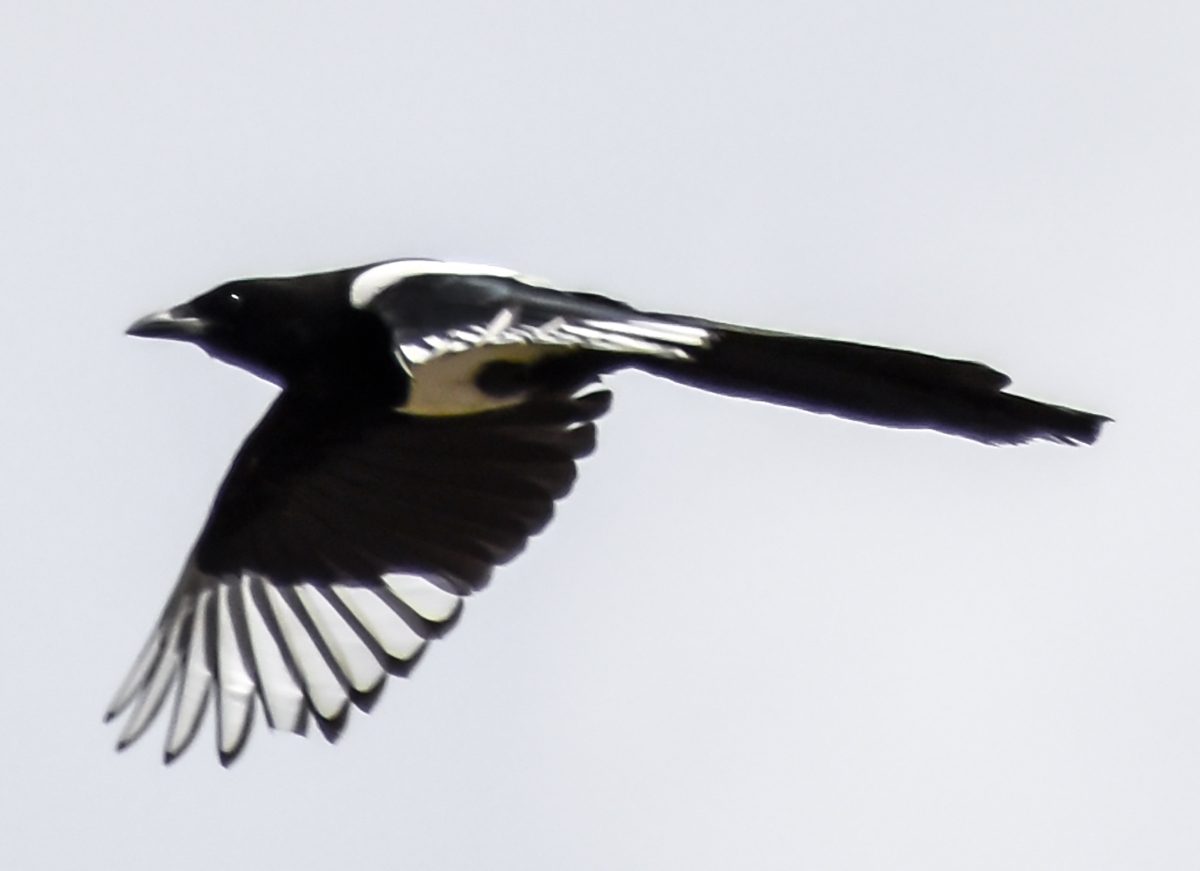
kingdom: Animalia
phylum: Chordata
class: Aves
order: Passeriformes
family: Corvidae
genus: Pica
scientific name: Pica pica
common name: Eurasian magpie
